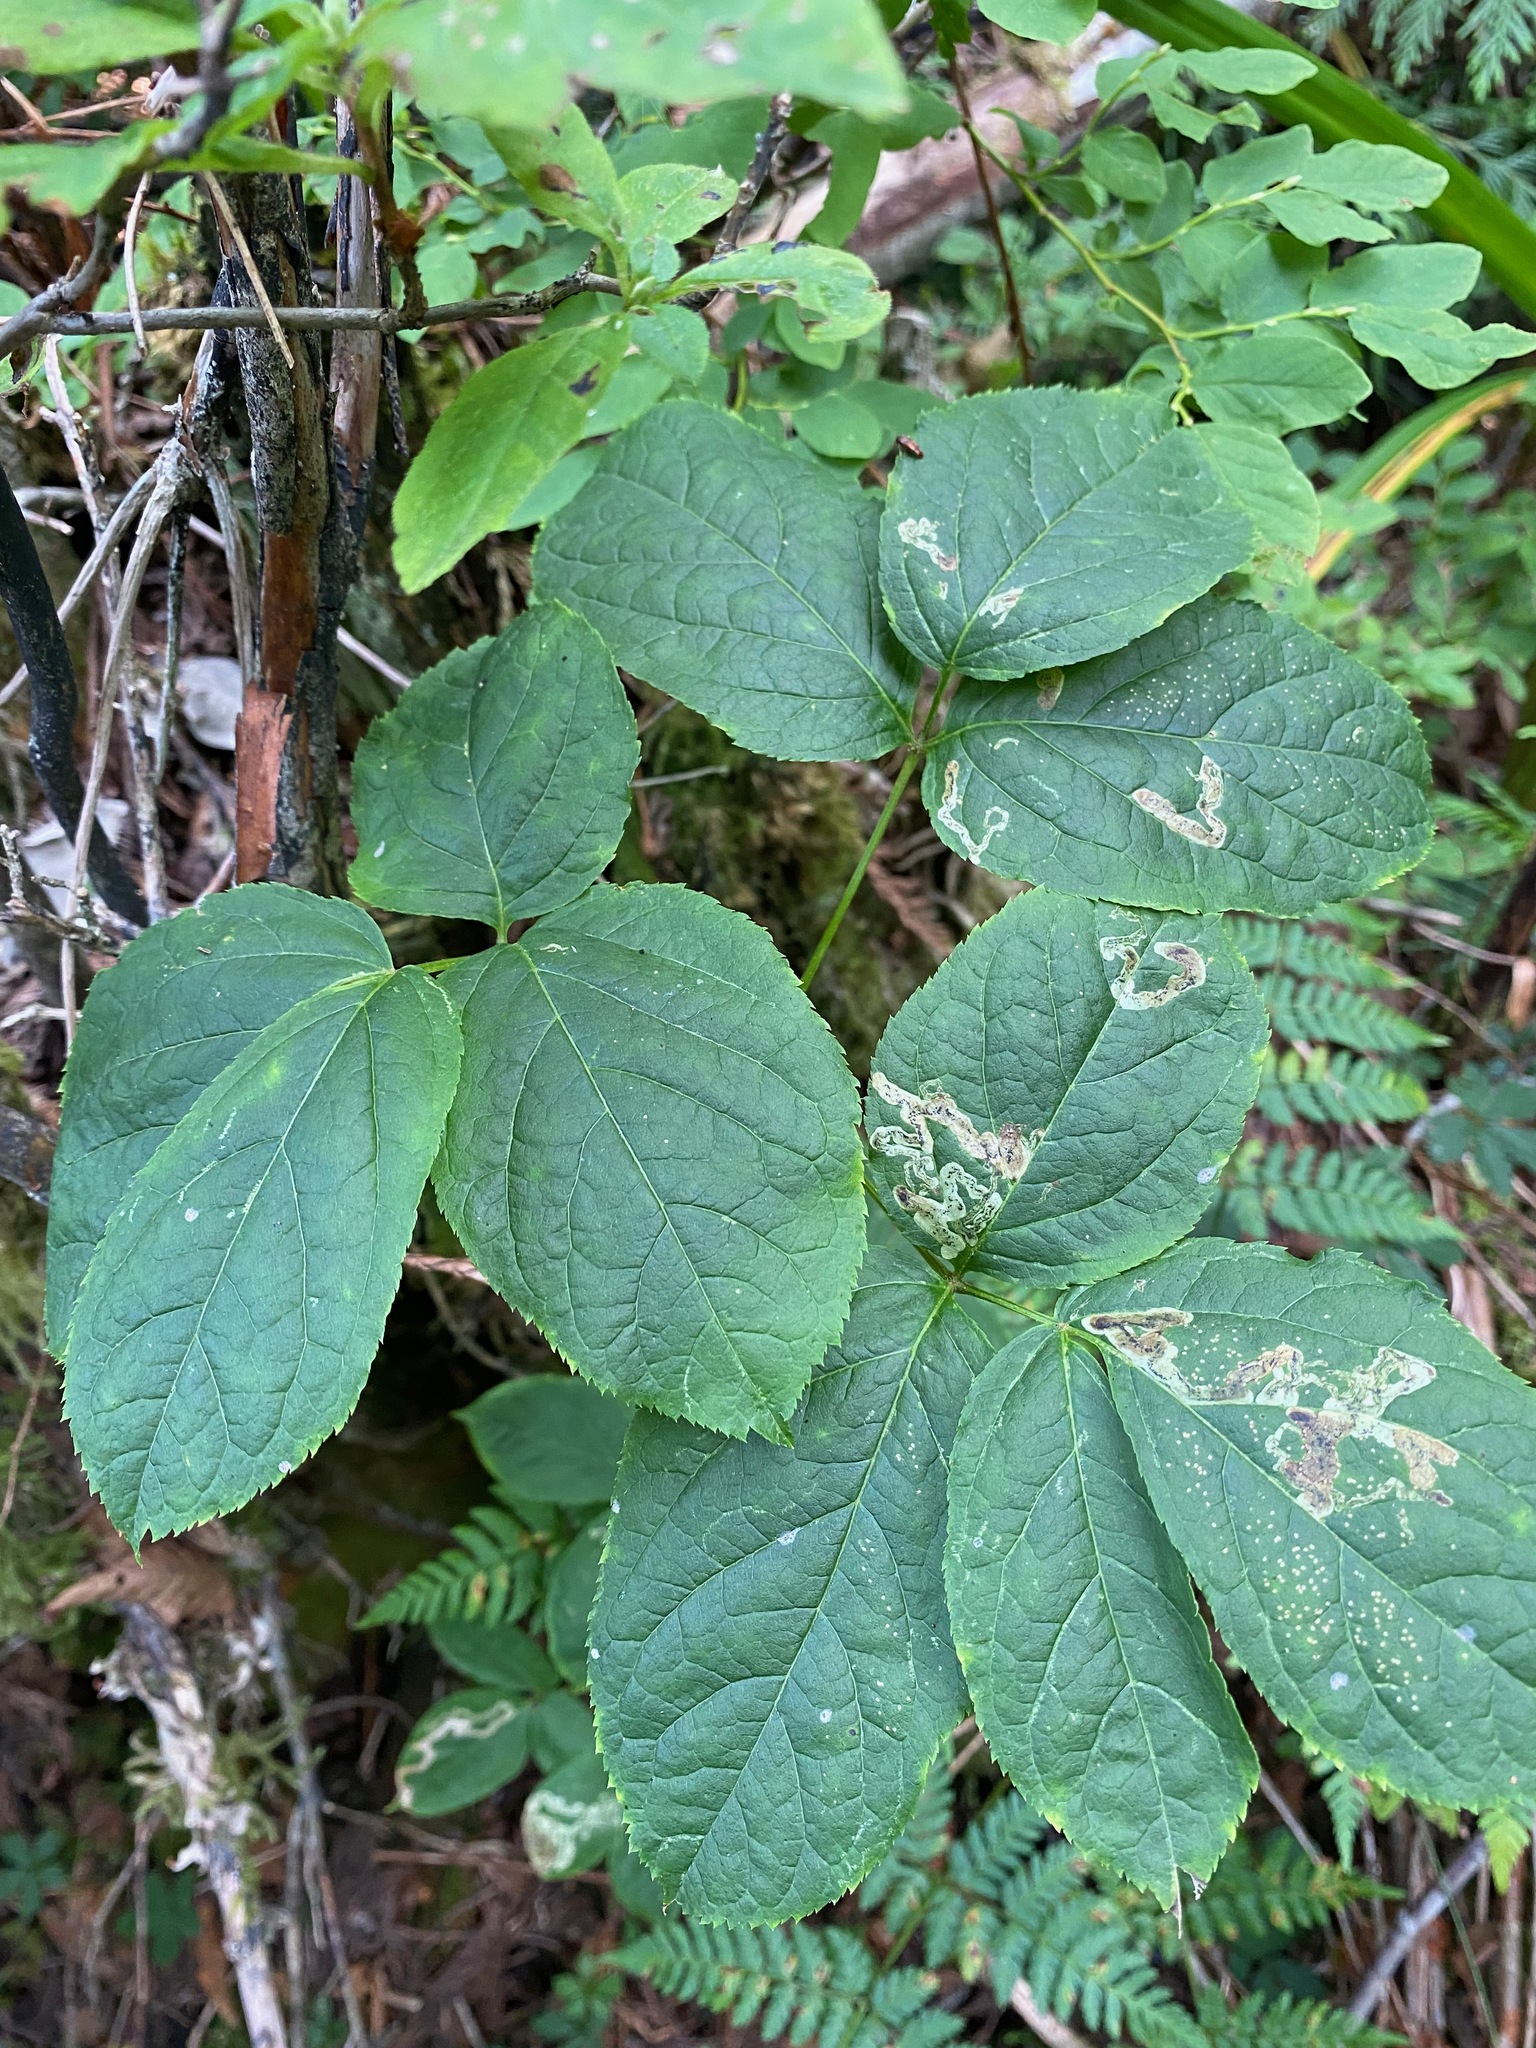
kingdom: Plantae
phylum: Tracheophyta
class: Magnoliopsida
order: Apiales
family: Araliaceae
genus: Aralia
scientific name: Aralia nudicaulis
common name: Wild sarsaparilla
